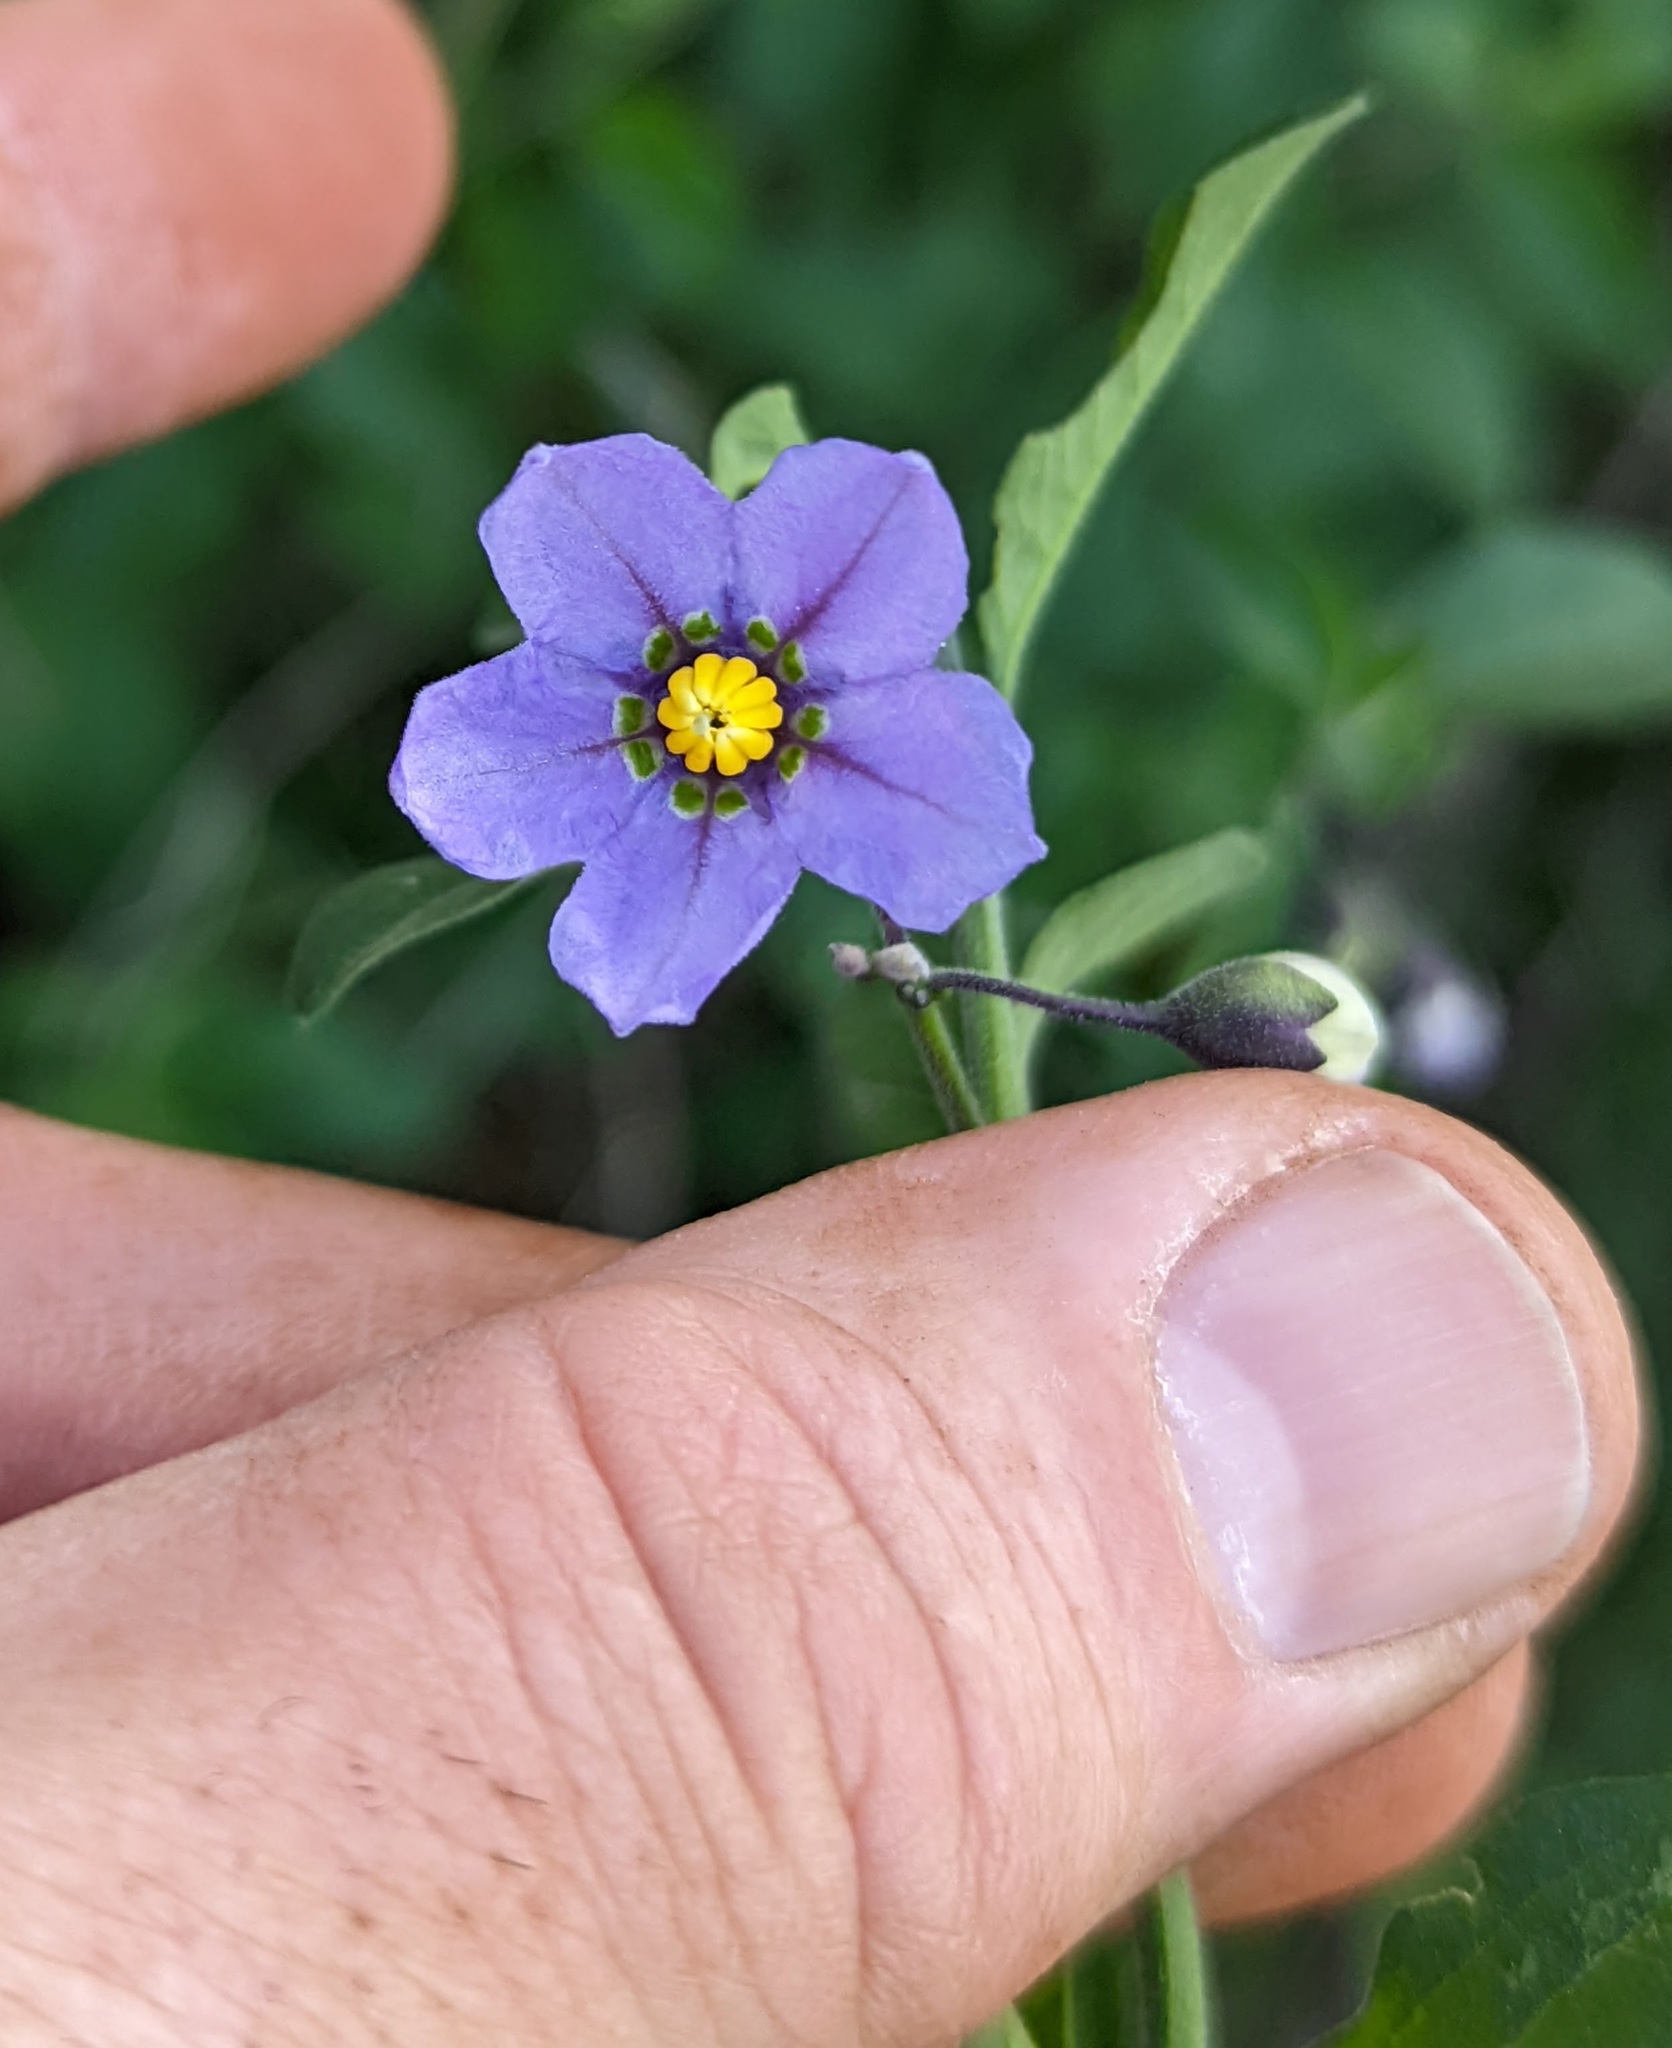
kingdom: Plantae
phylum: Tracheophyta
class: Magnoliopsida
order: Solanales
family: Solanaceae
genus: Solanum
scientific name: Solanum umbelliferum
